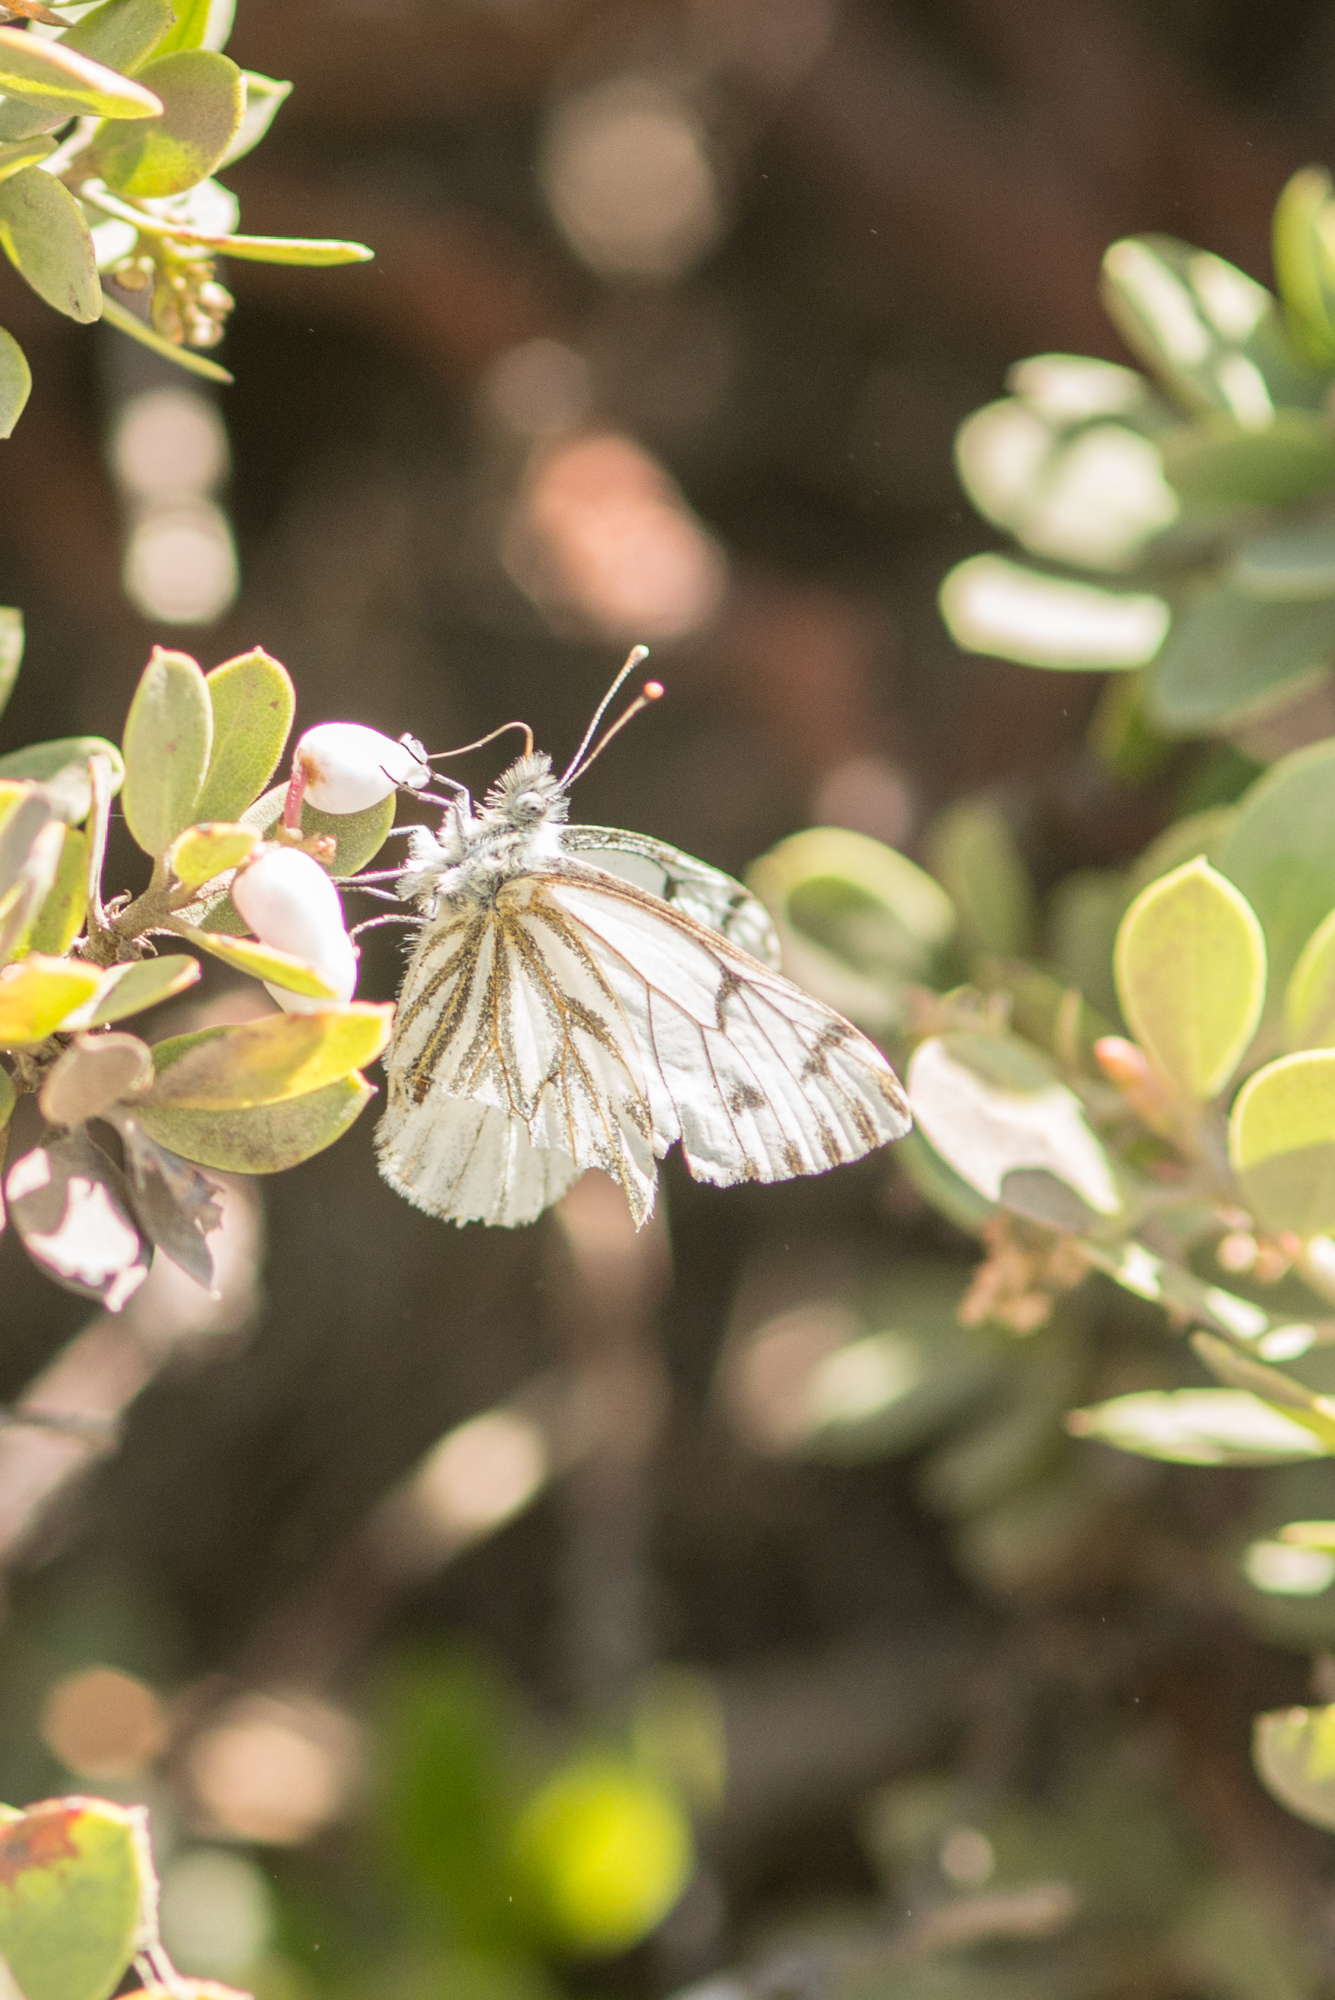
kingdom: Animalia
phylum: Arthropoda
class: Insecta
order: Lepidoptera
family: Pieridae
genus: Pontia
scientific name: Pontia sisymbrii
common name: California white
